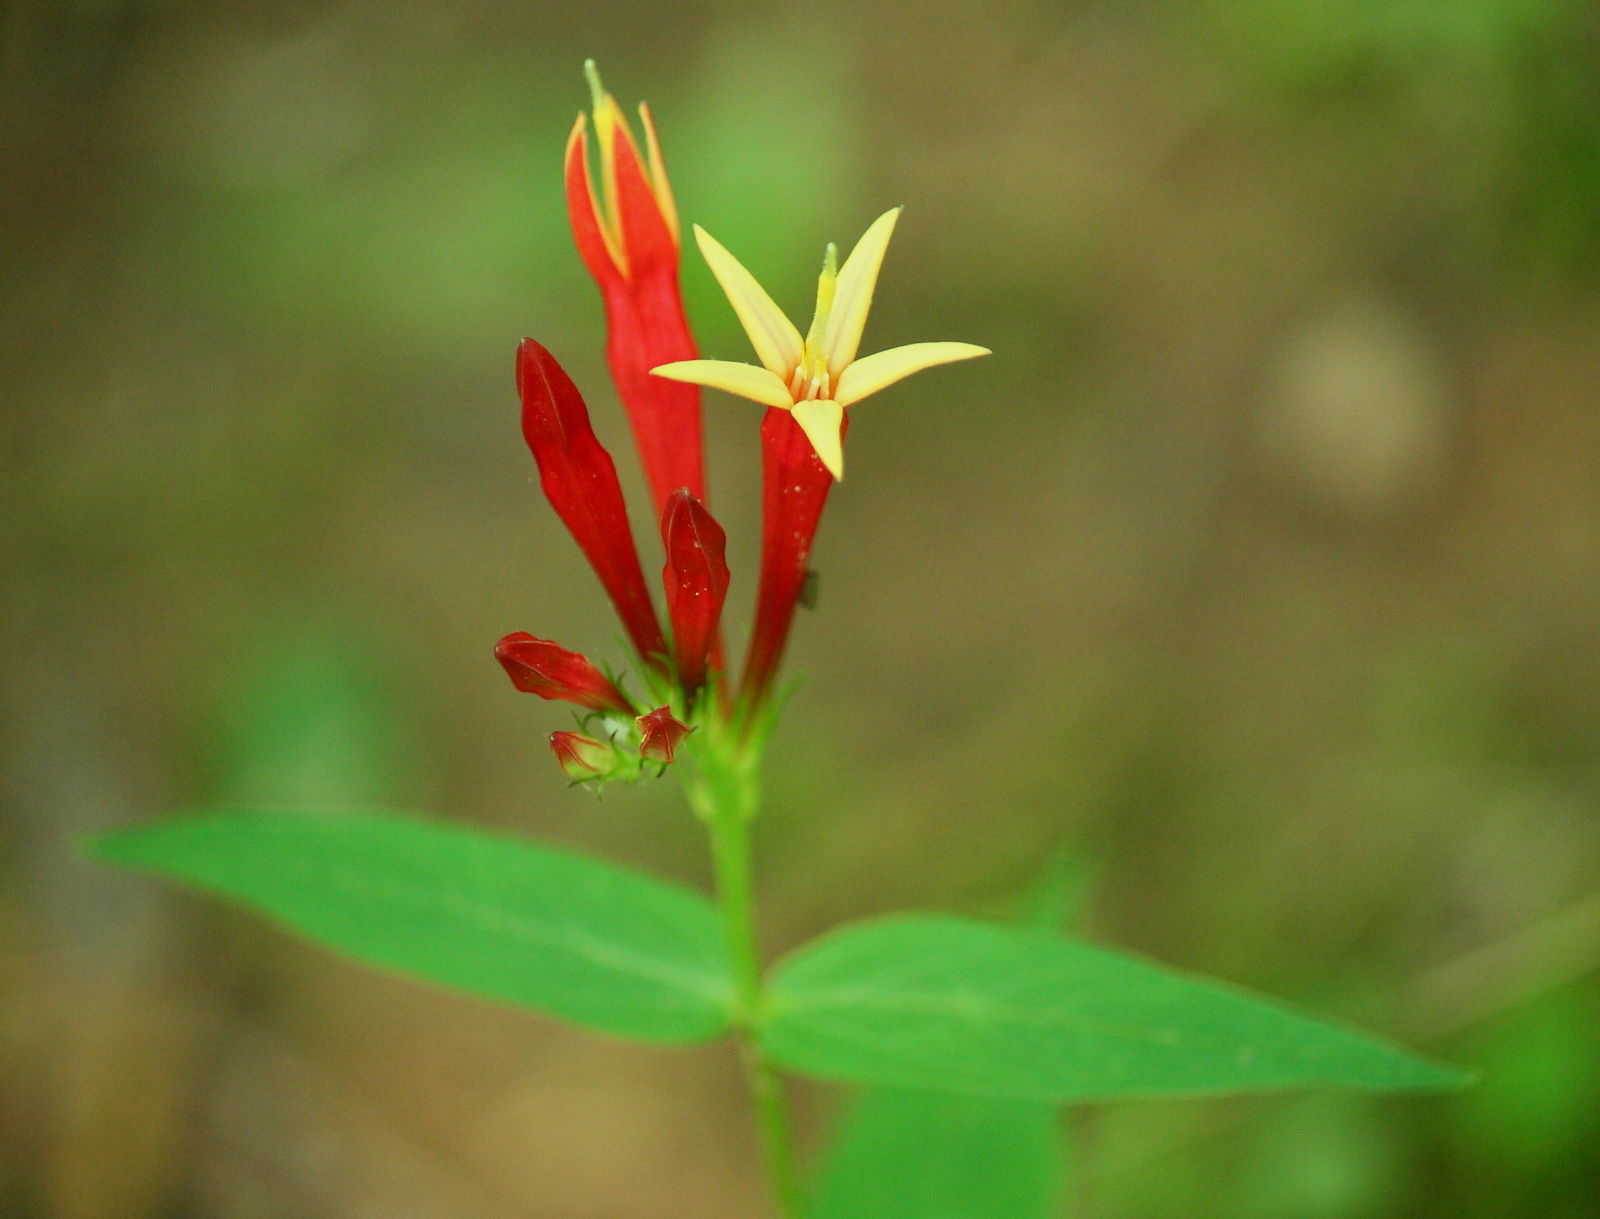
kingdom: Plantae
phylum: Tracheophyta
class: Magnoliopsida
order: Gentianales
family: Loganiaceae
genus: Spigelia
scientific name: Spigelia marilandica
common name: Indian-pink
